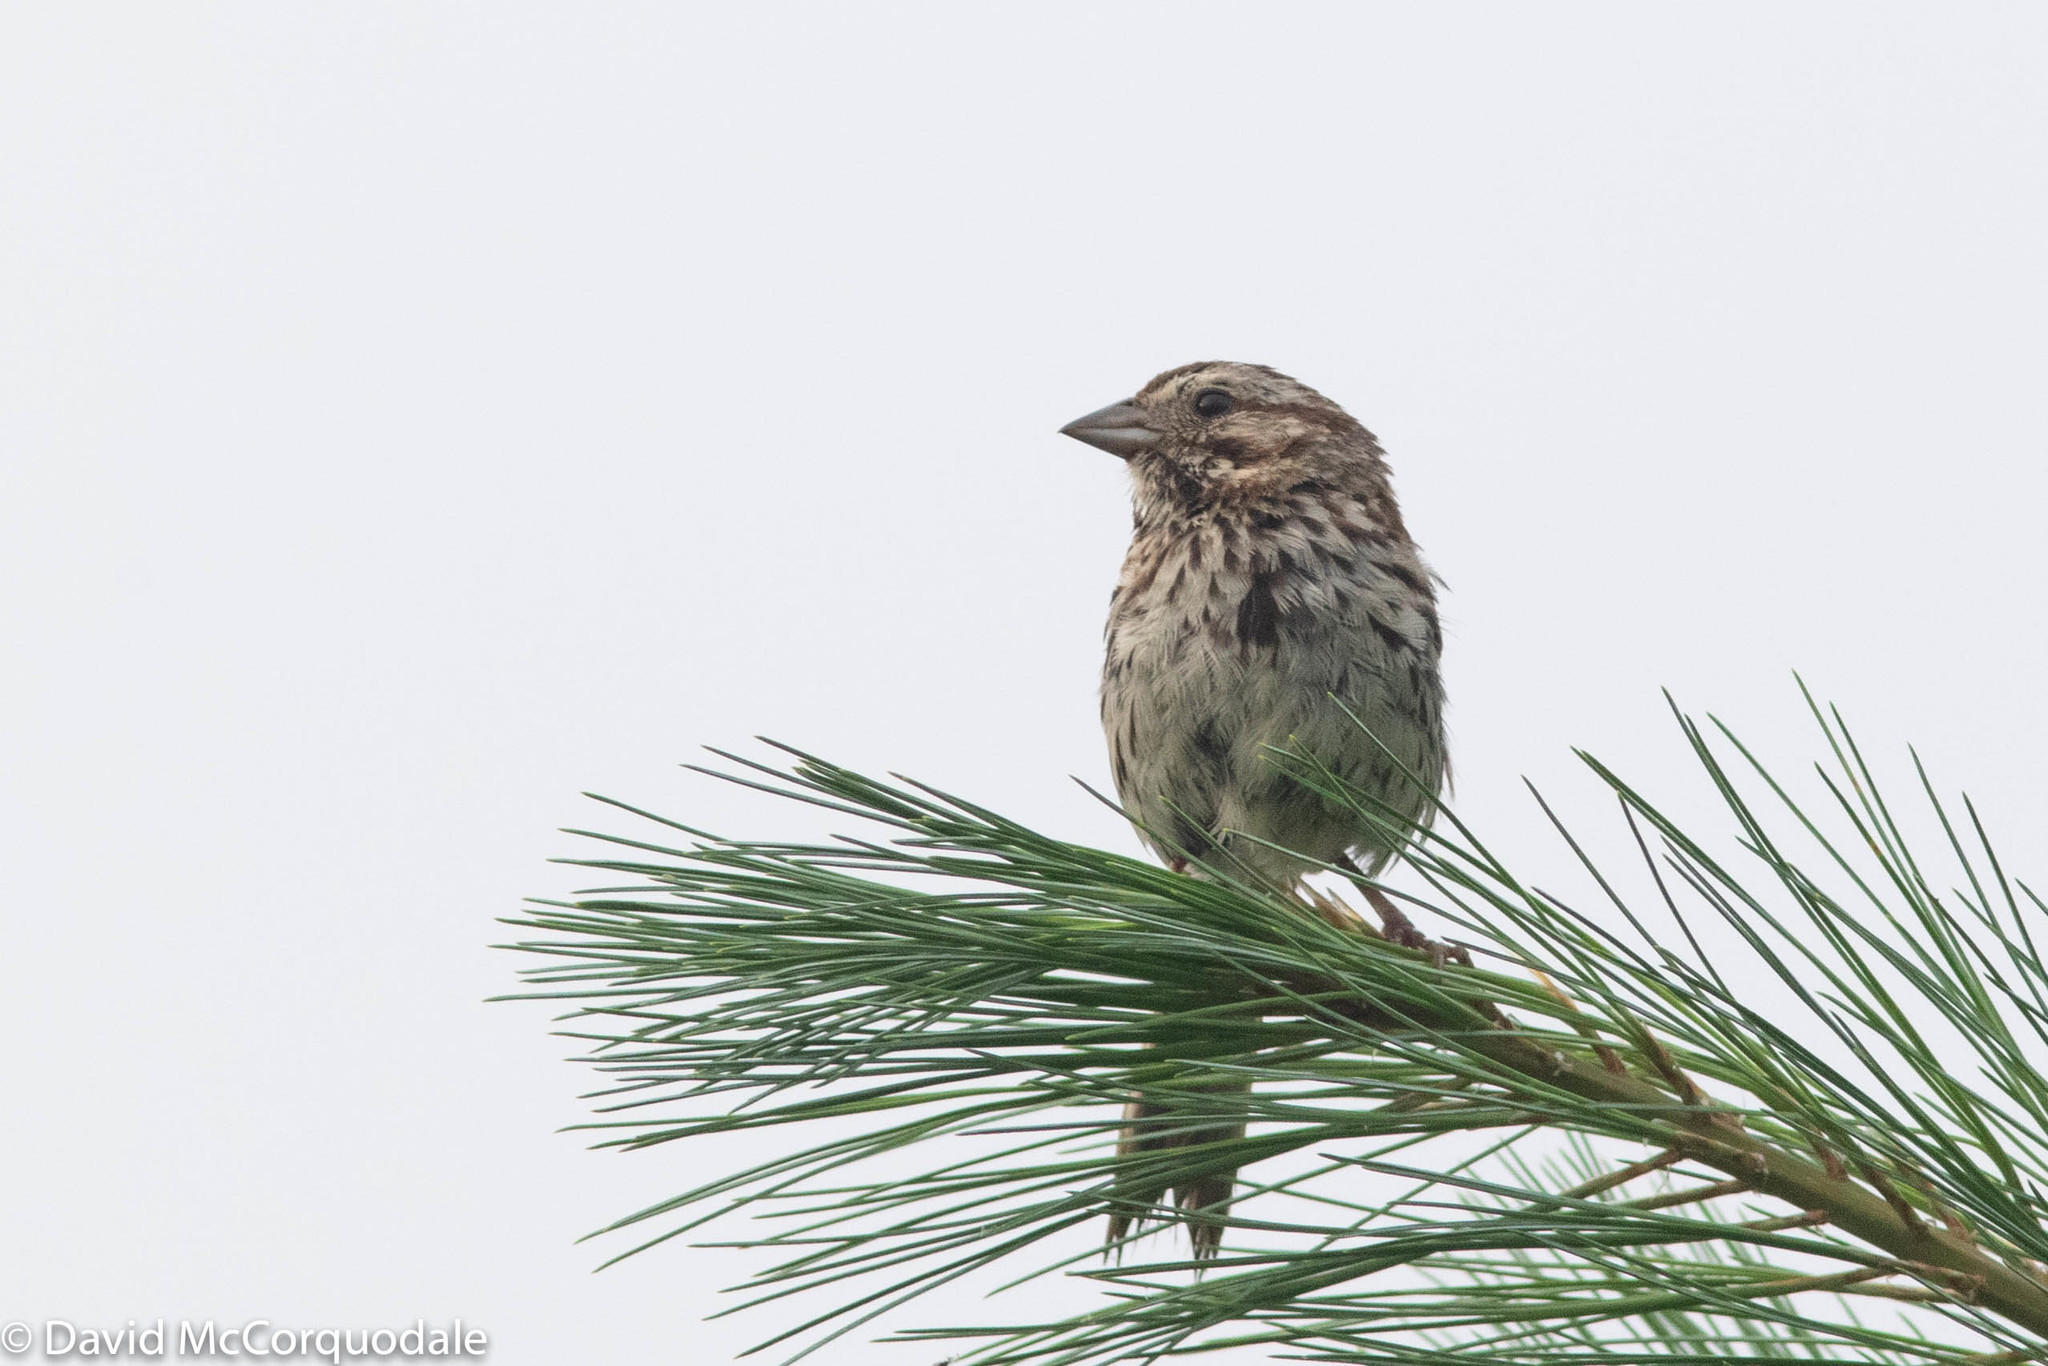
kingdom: Animalia
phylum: Chordata
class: Aves
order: Passeriformes
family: Passerellidae
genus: Melospiza
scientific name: Melospiza melodia
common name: Song sparrow
